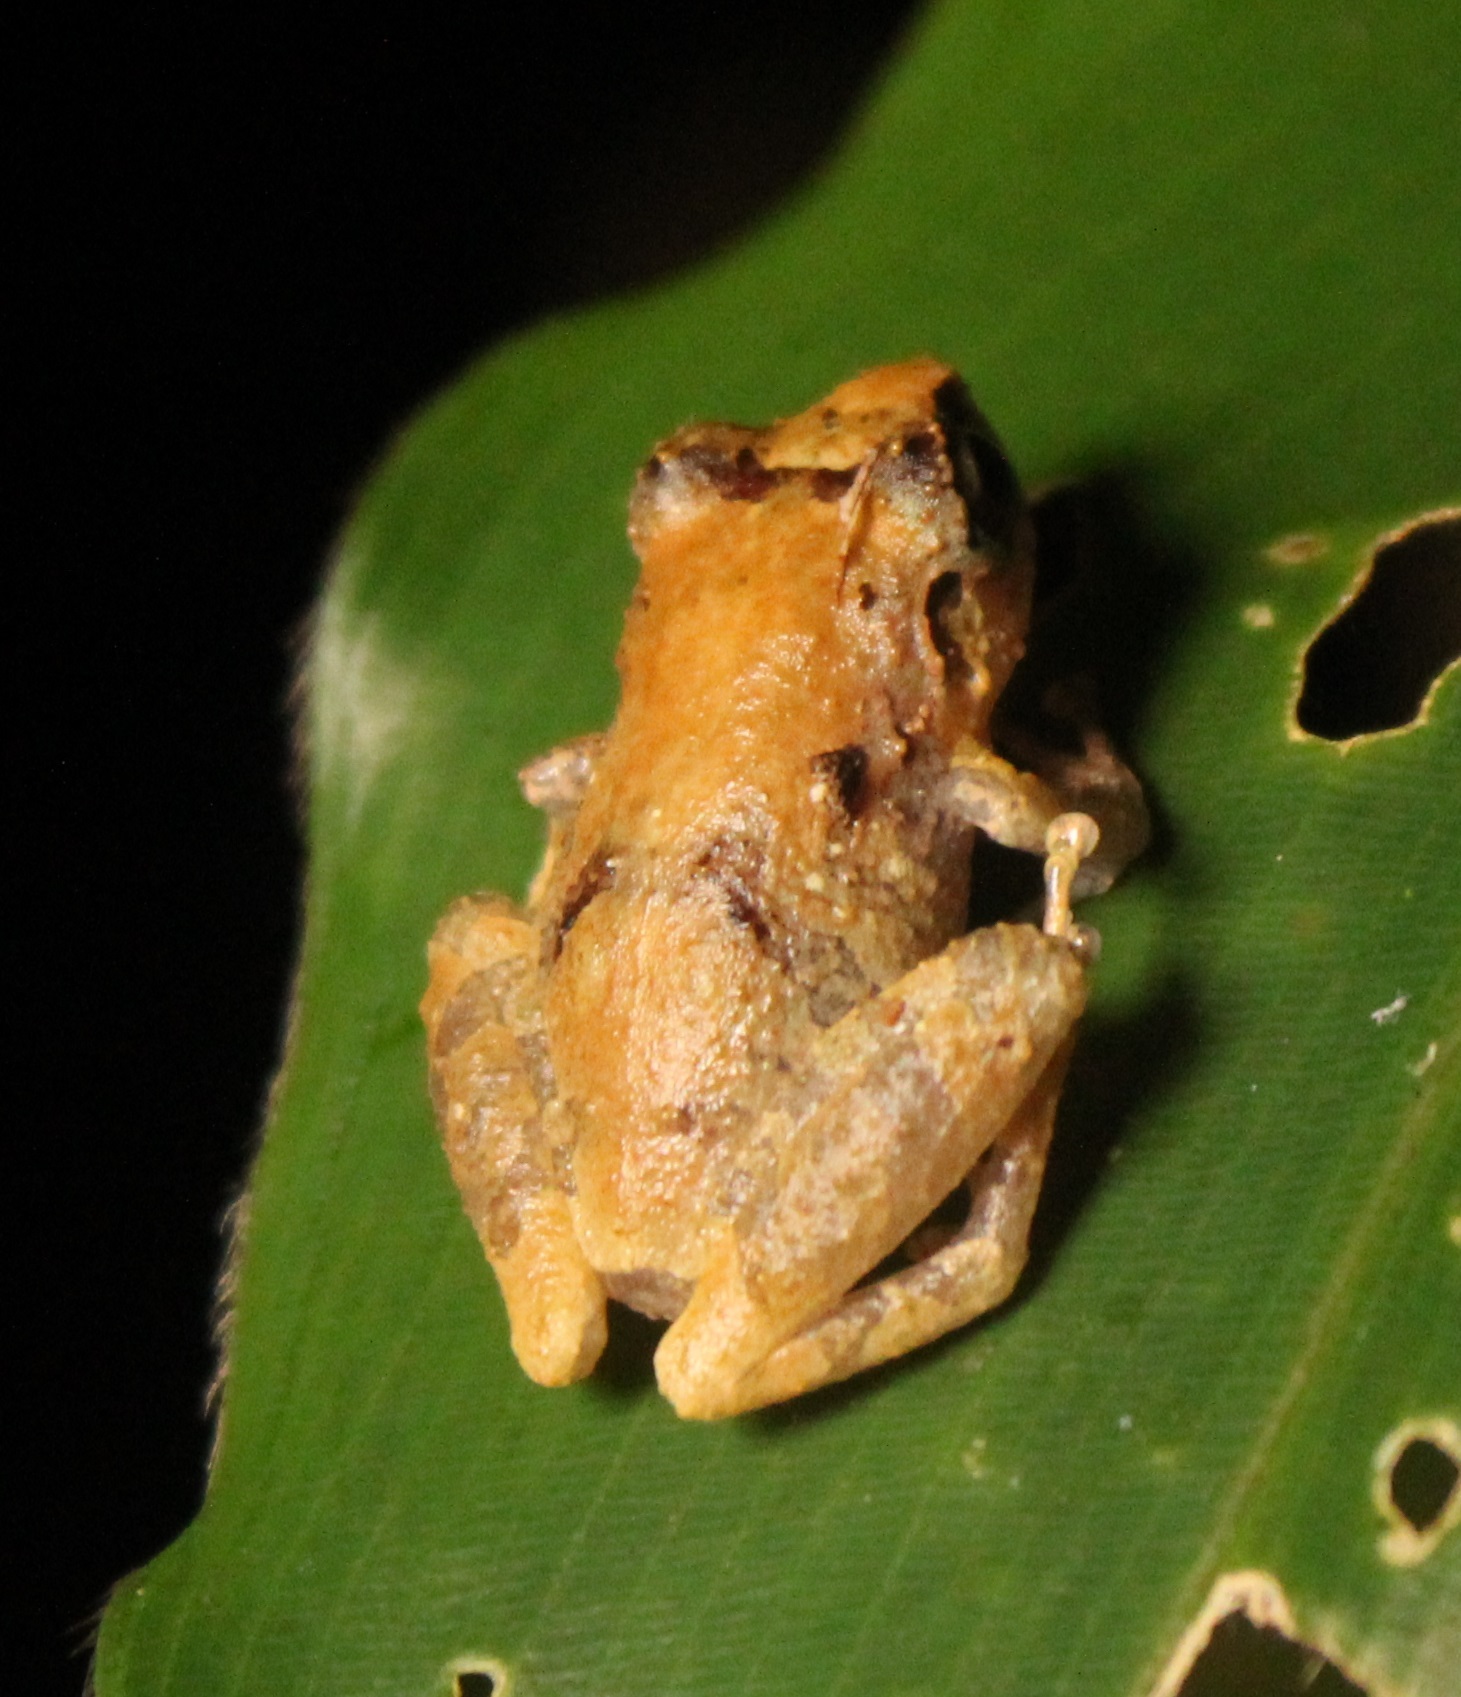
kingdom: Animalia
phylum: Chordata
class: Amphibia
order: Anura
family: Craugastoridae
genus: Pristimantis
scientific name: Pristimantis ridens
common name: Rio san juan robber frog
